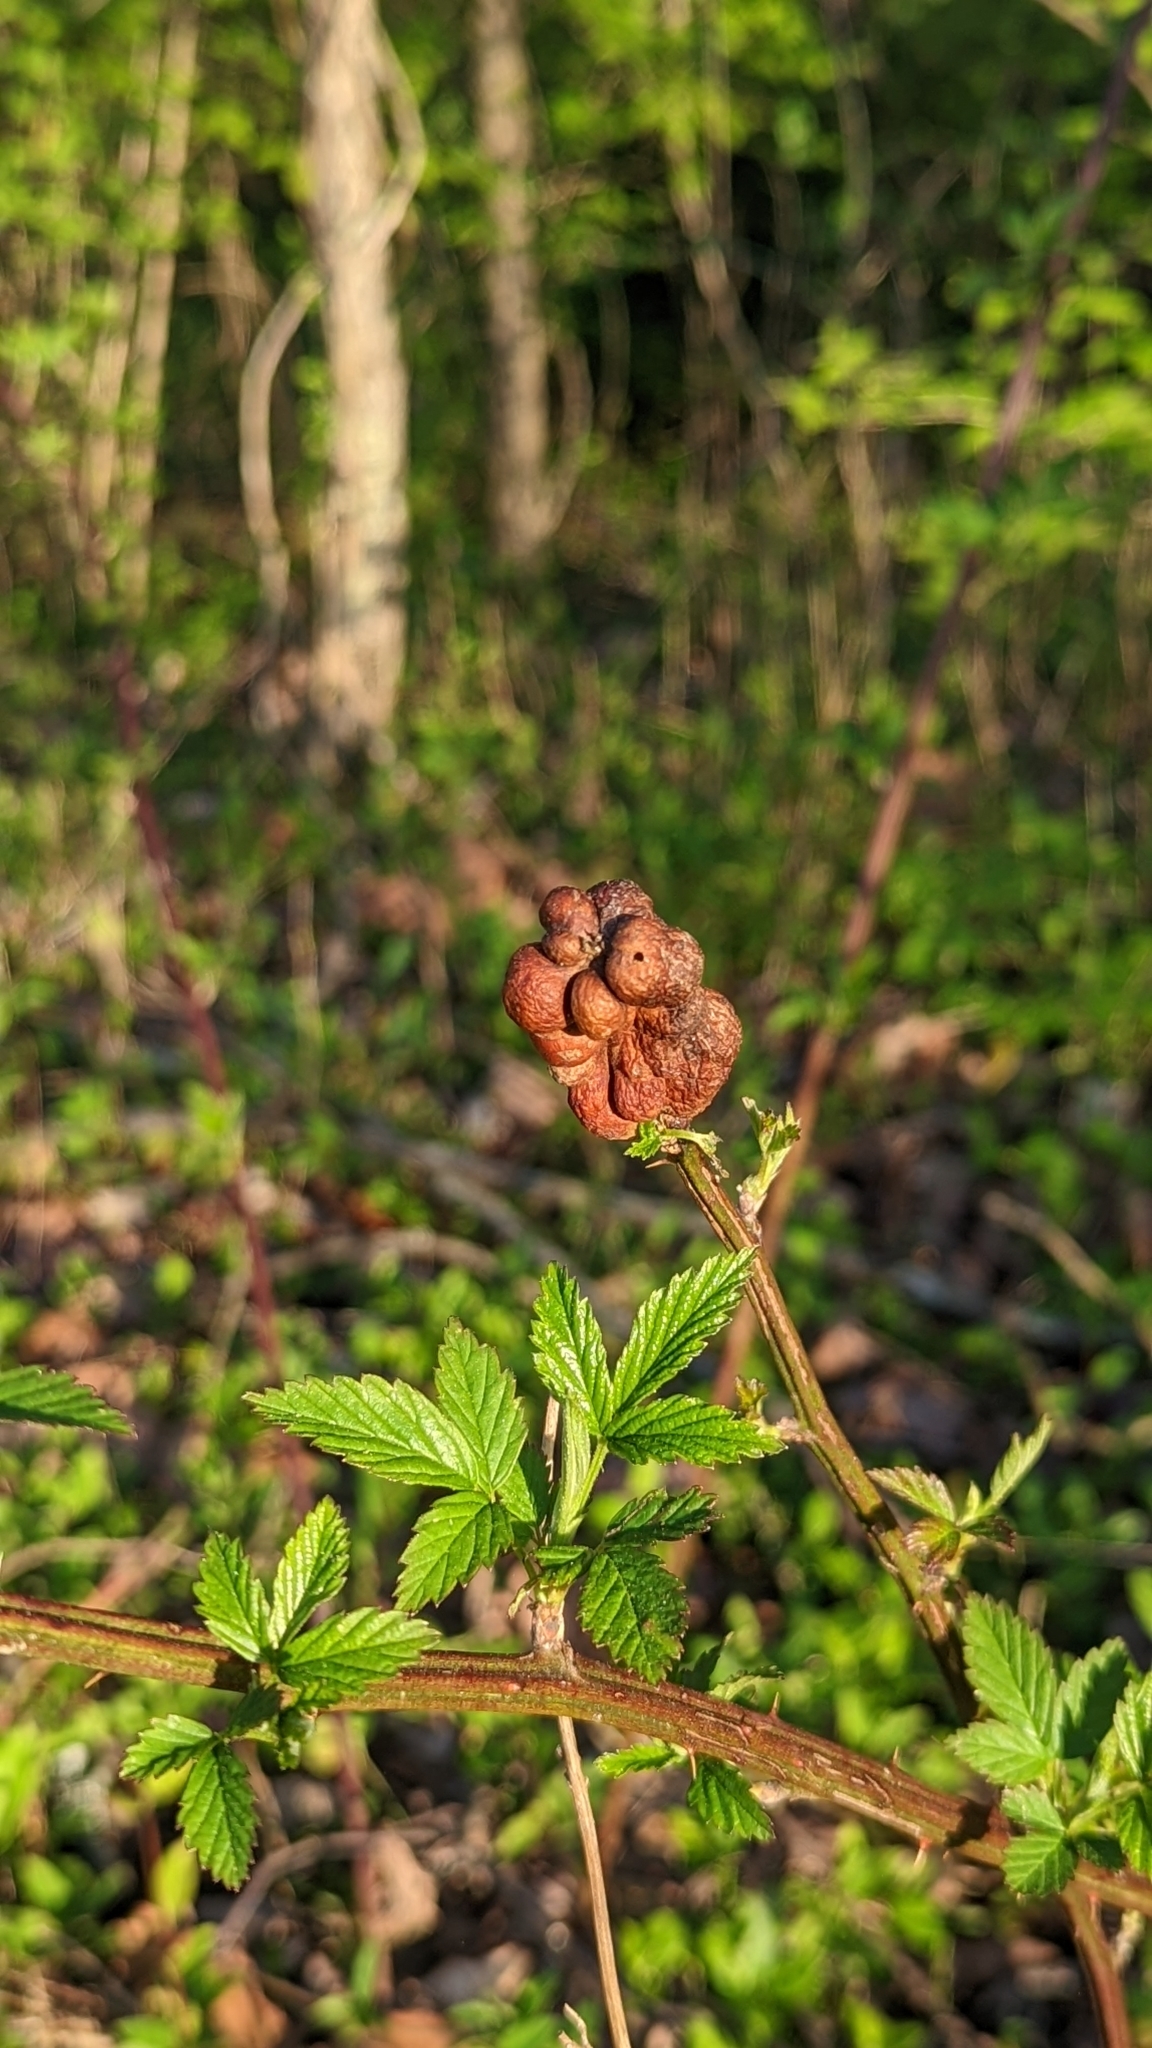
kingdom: Animalia
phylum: Arthropoda
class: Insecta
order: Hymenoptera
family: Cynipidae
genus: Diastrophus
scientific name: Diastrophus
